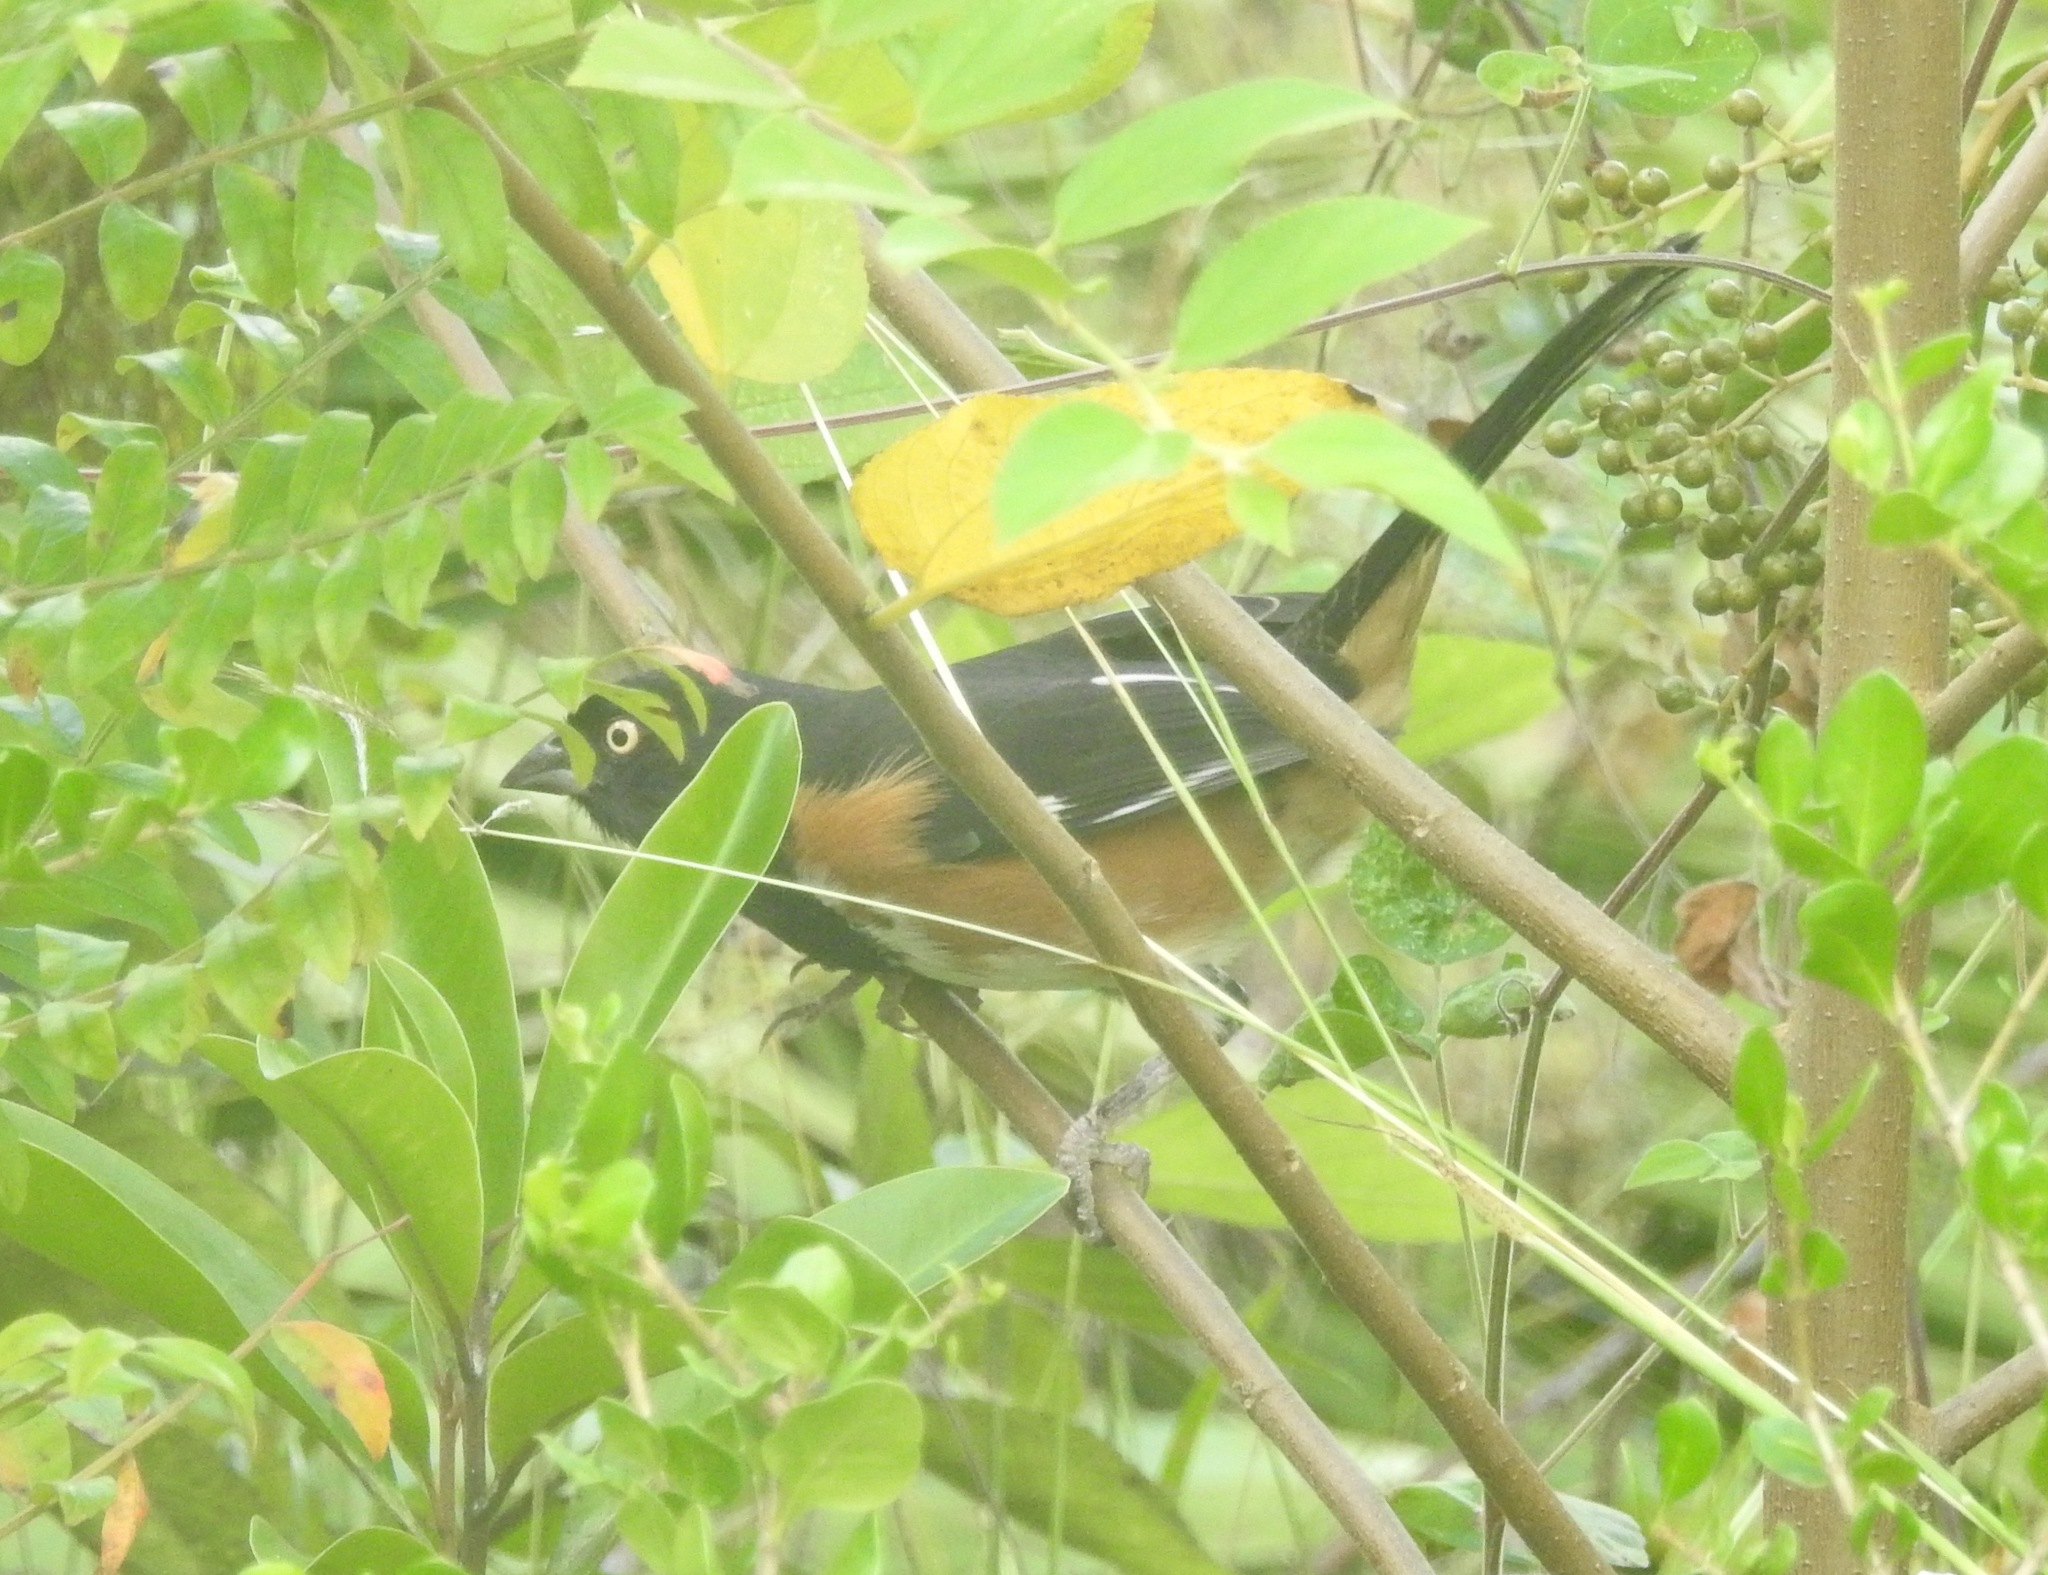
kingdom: Animalia
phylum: Chordata
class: Aves
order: Passeriformes
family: Passerellidae
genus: Pipilo
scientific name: Pipilo erythrophthalmus
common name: Eastern towhee
